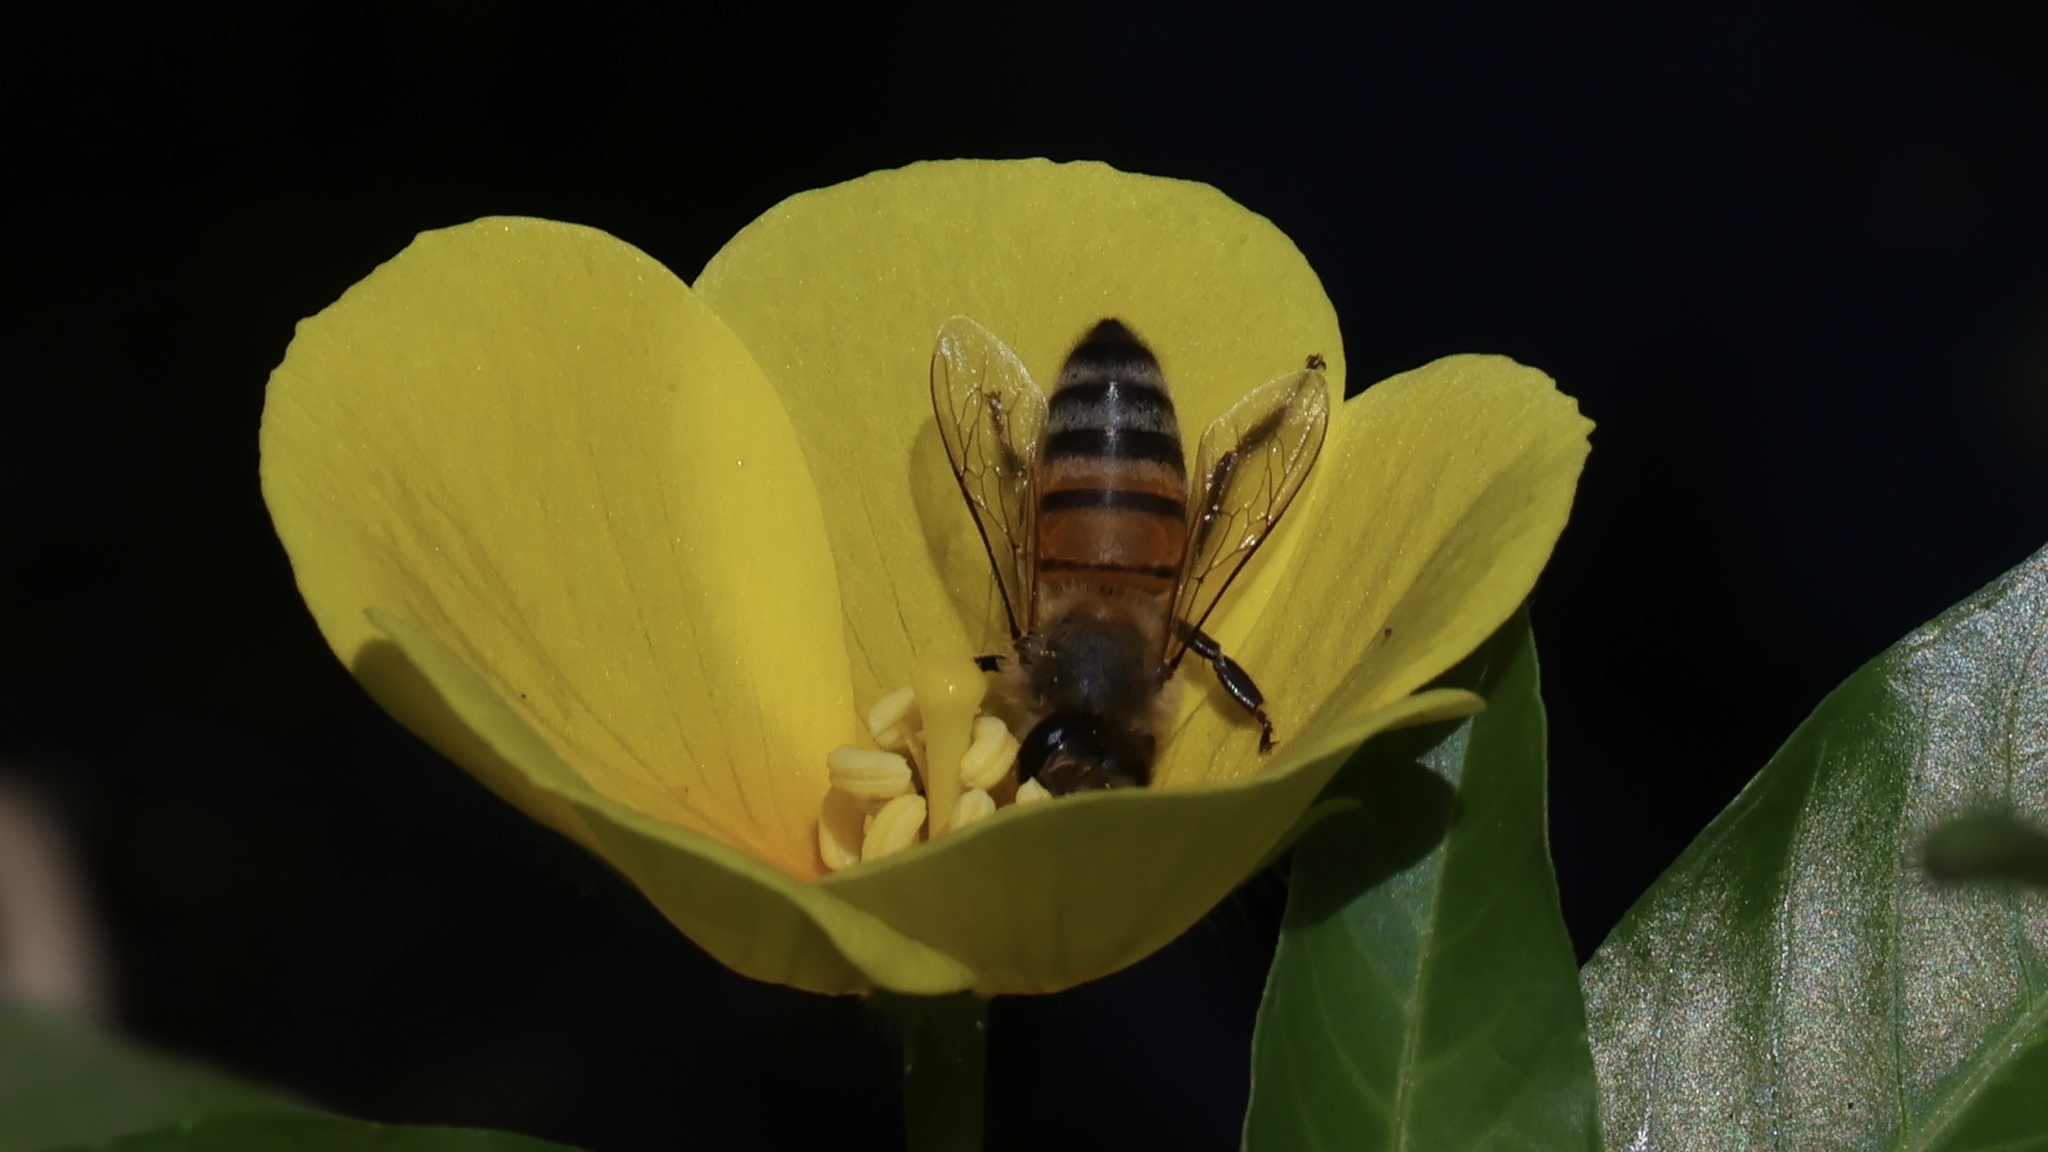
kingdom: Animalia
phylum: Arthropoda
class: Insecta
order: Hymenoptera
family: Apidae
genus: Apis
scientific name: Apis mellifera
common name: Honey bee
